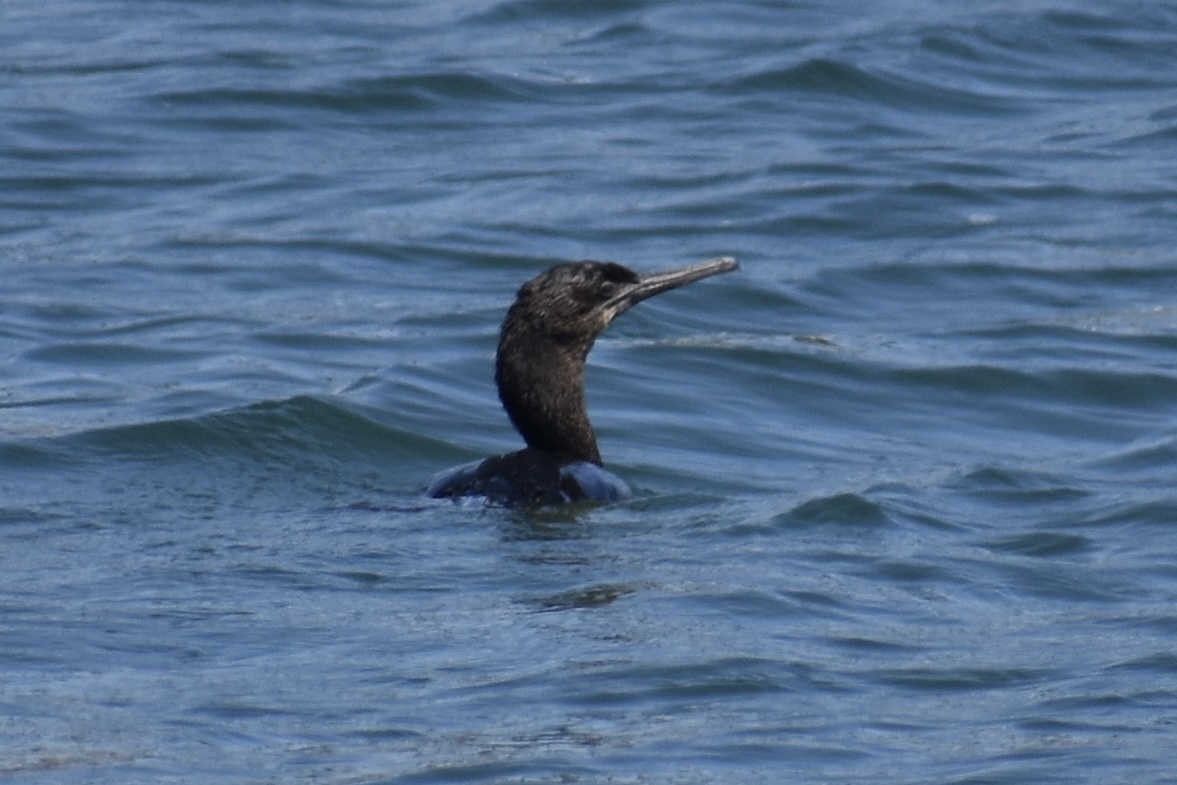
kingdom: Animalia
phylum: Chordata
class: Aves
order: Suliformes
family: Phalacrocoracidae
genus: Urile
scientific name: Urile penicillatus
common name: Brandt's cormorant
